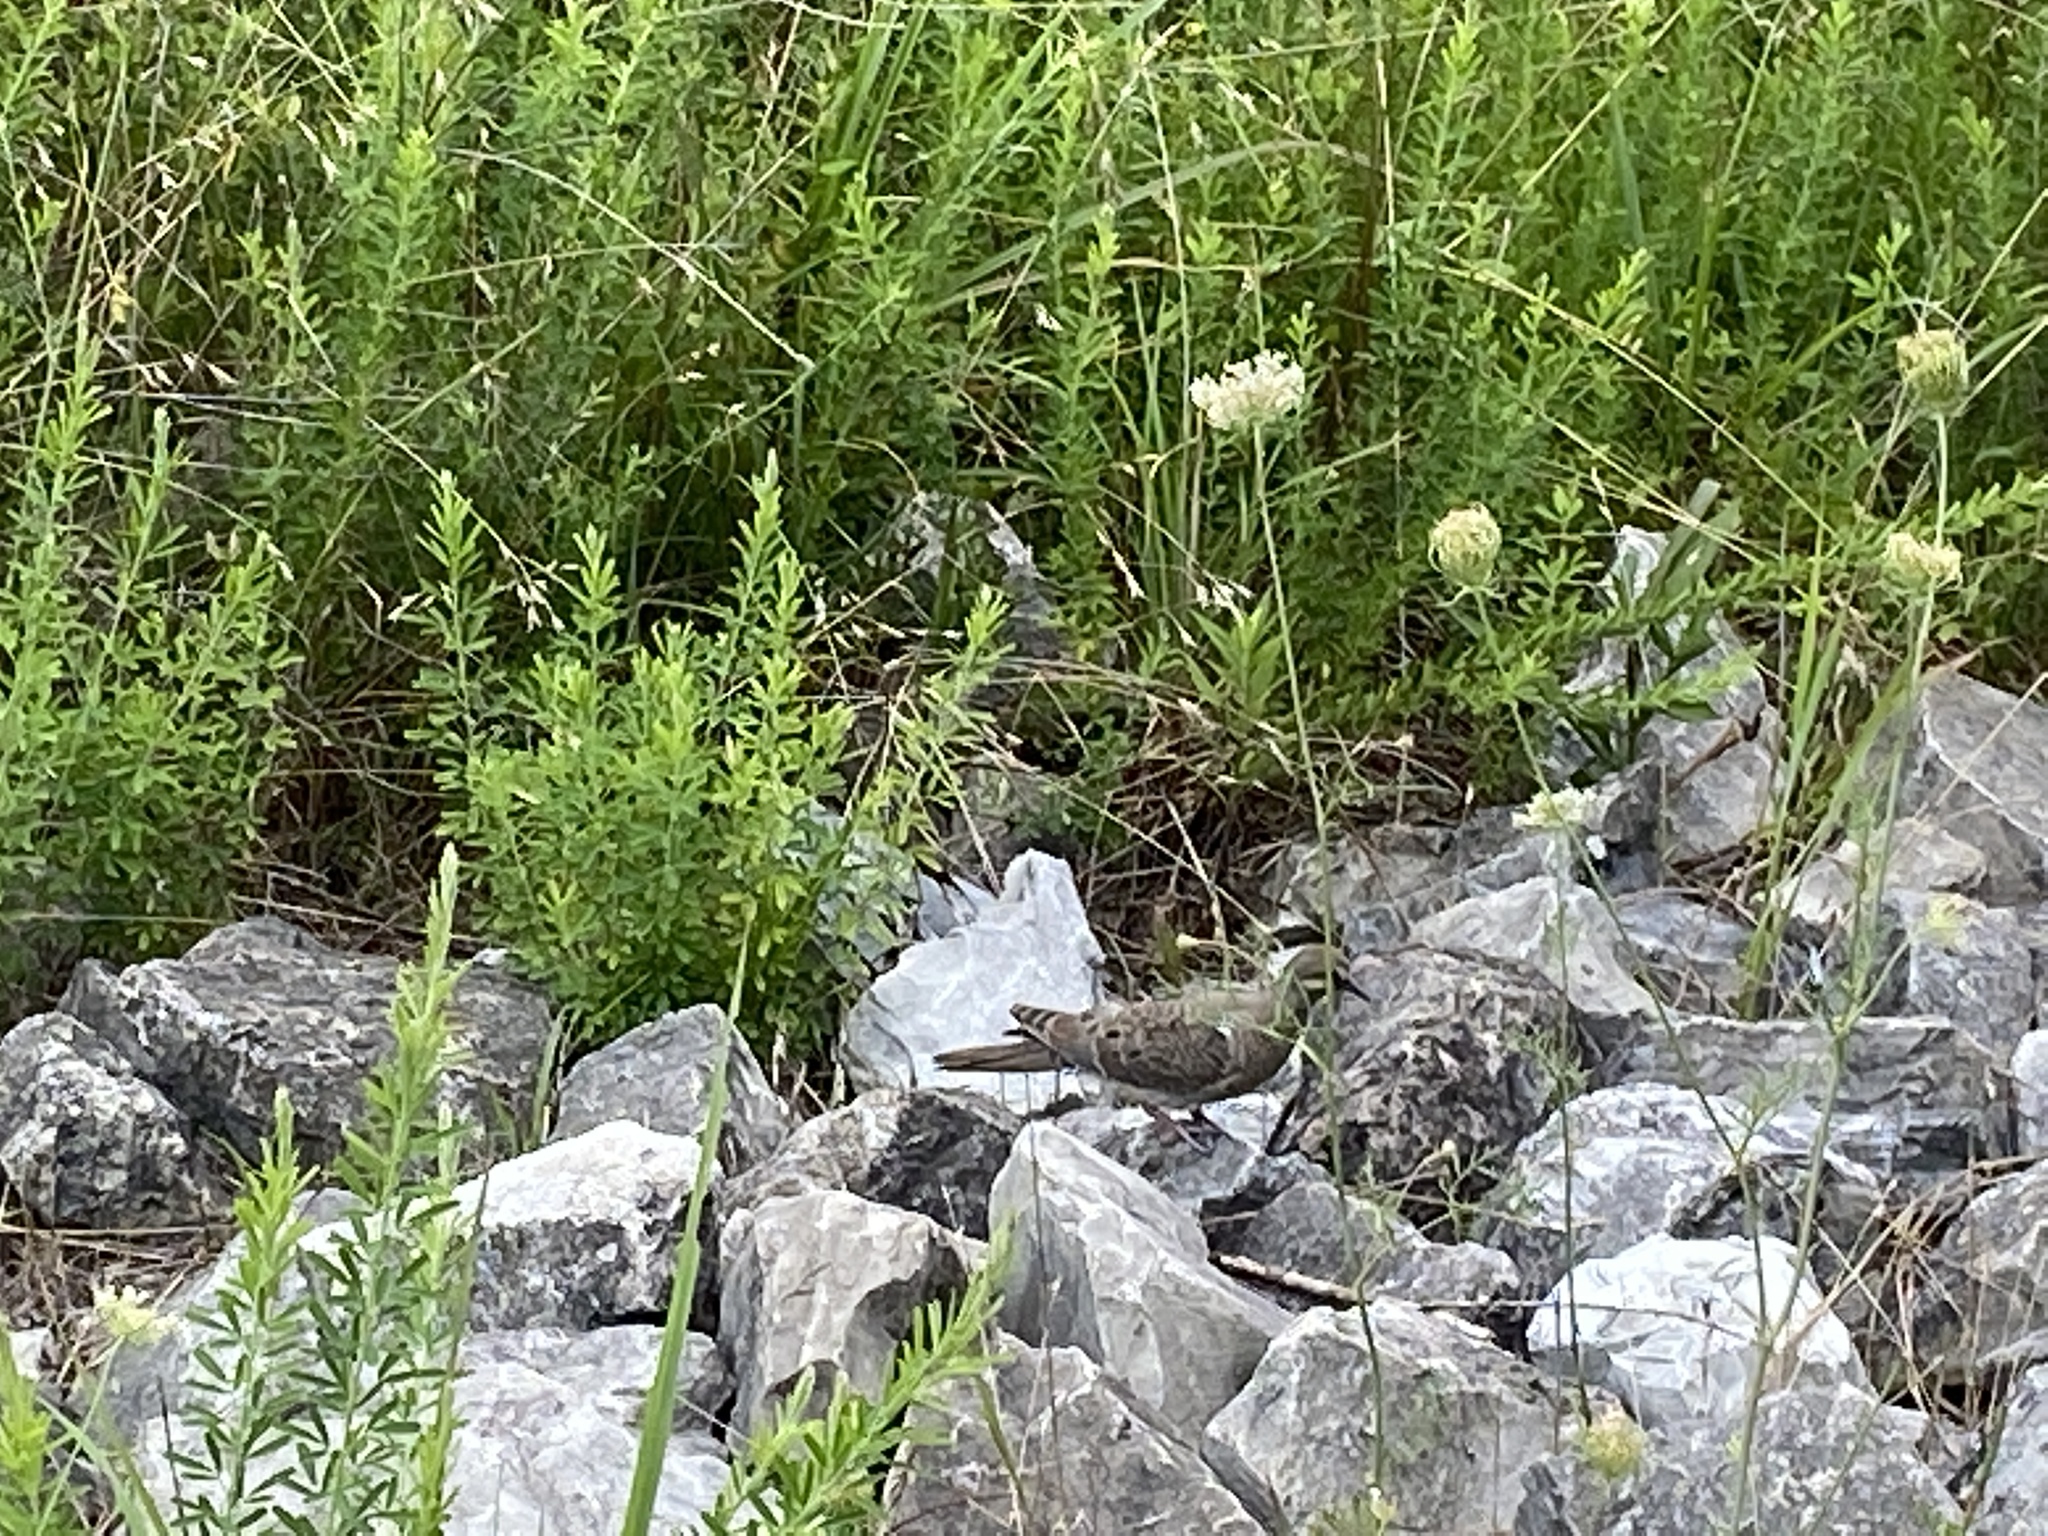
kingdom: Animalia
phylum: Chordata
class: Aves
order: Columbiformes
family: Columbidae
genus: Zenaida
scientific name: Zenaida macroura
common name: Mourning dove
